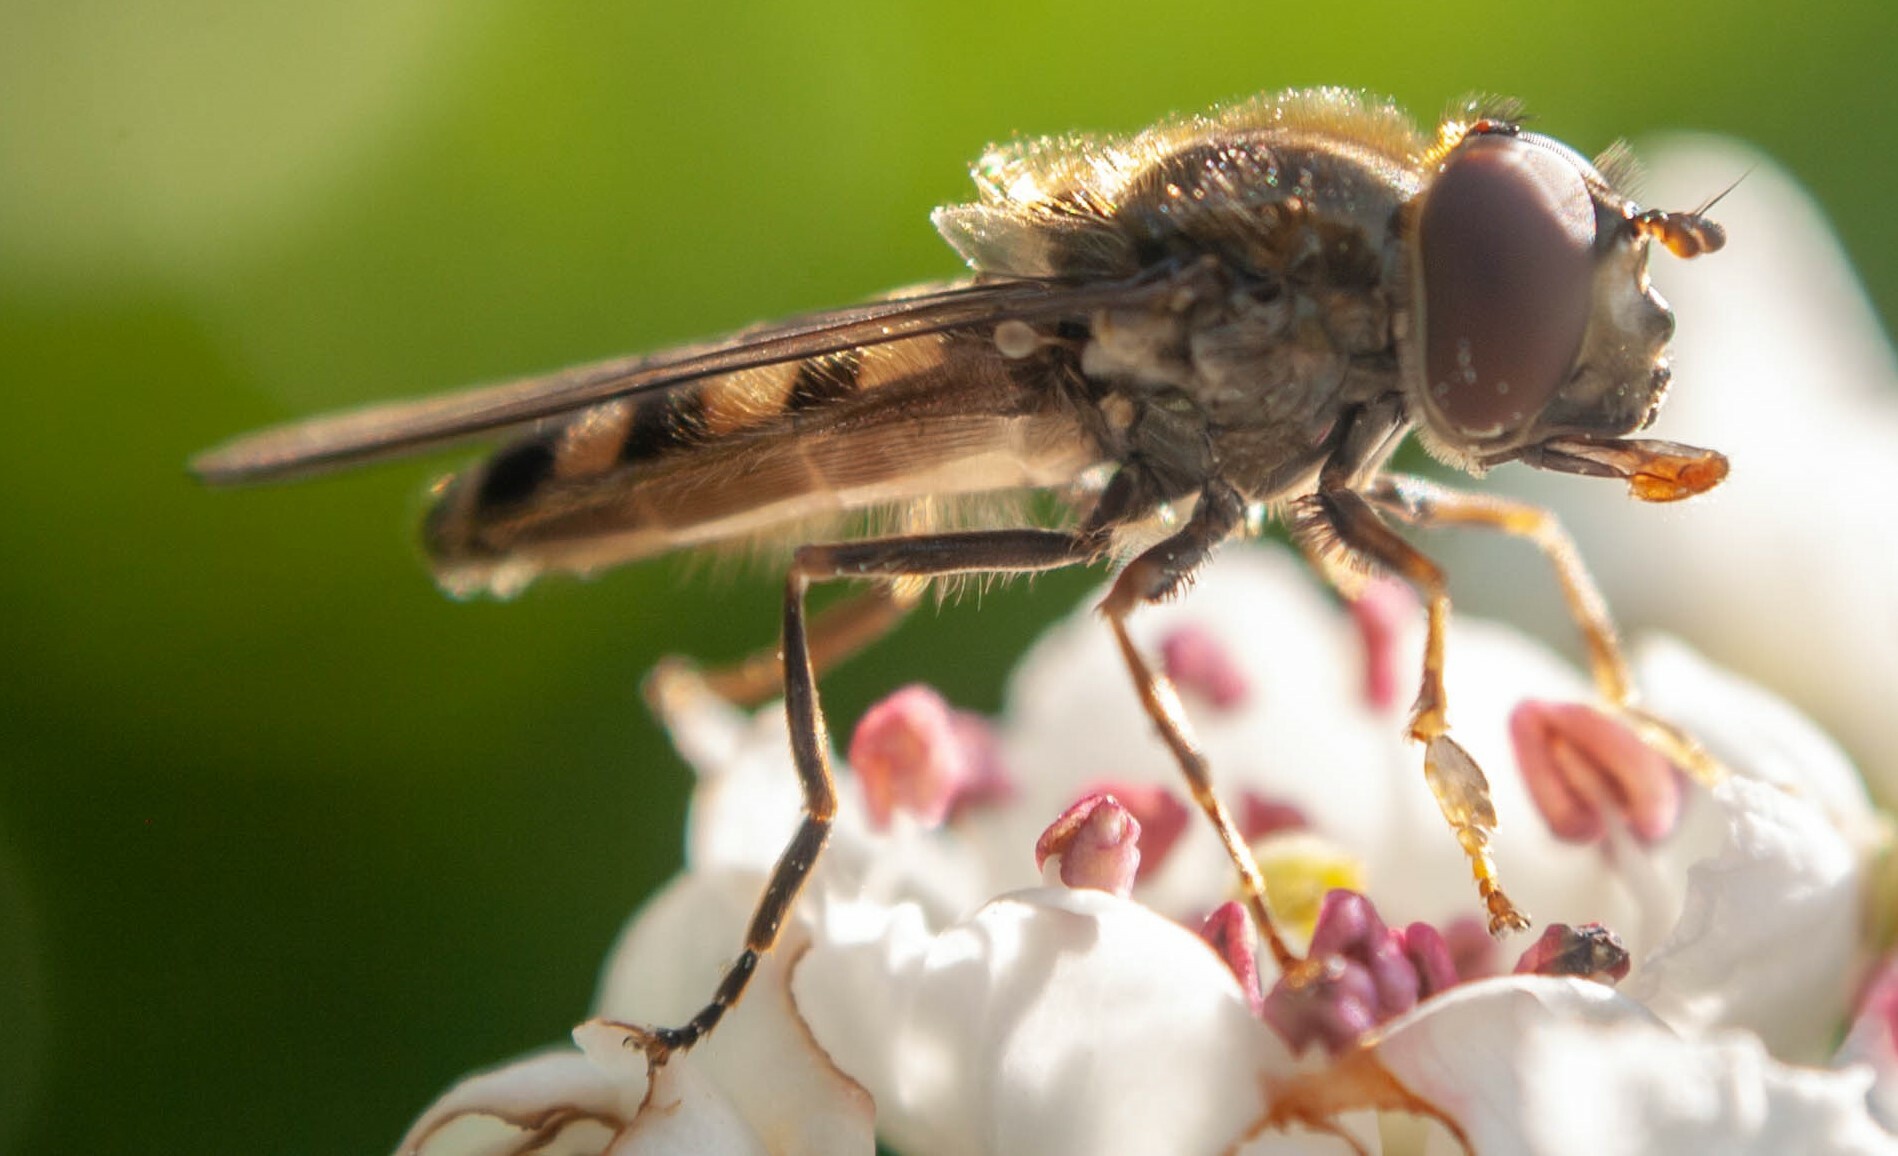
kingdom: Animalia
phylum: Arthropoda
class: Insecta
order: Diptera
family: Syrphidae
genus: Platycheirus
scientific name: Platycheirus peltatus
